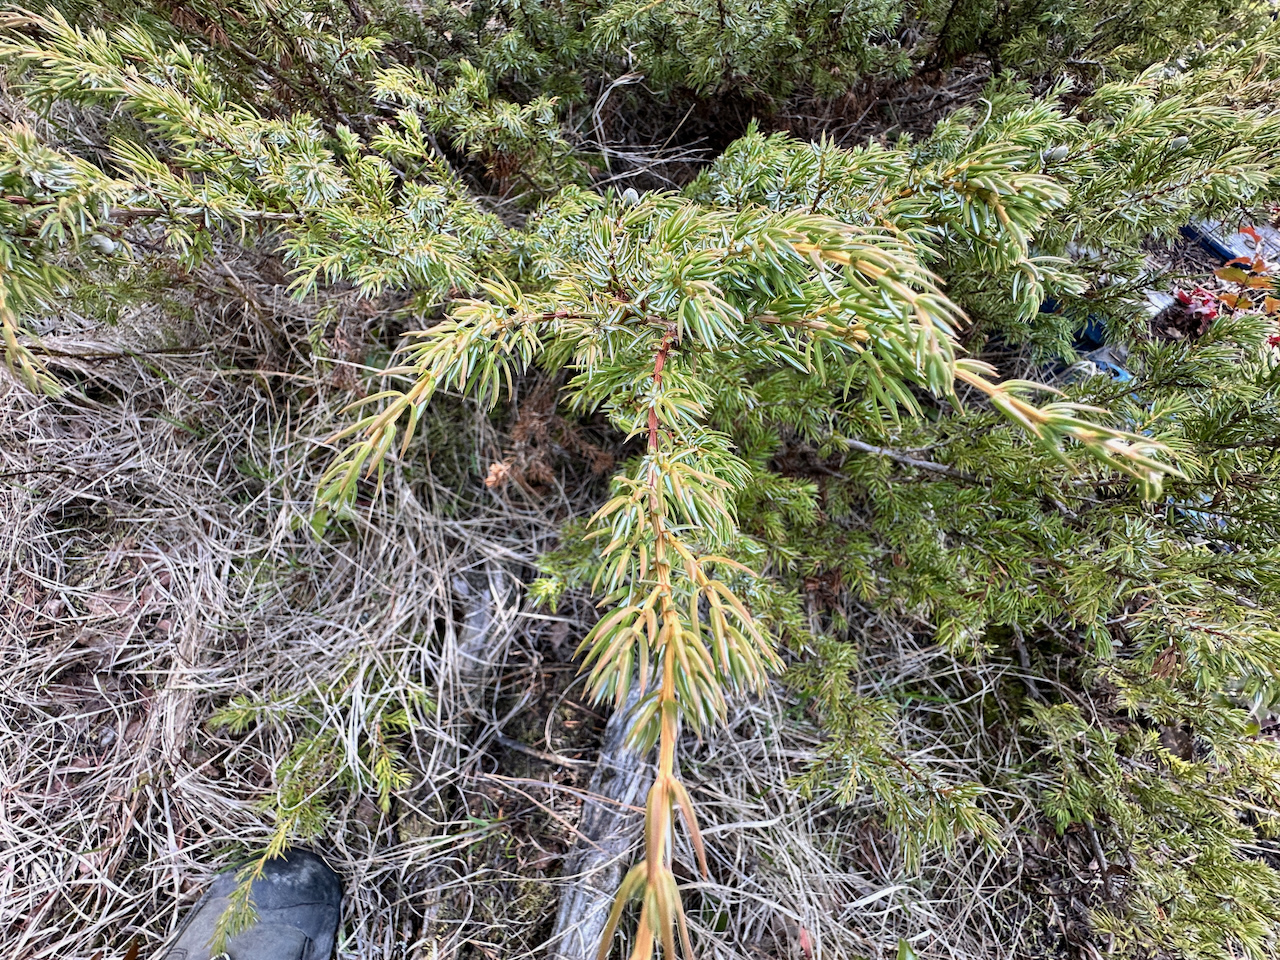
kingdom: Plantae
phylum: Tracheophyta
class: Pinopsida
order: Pinales
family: Cupressaceae
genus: Juniperus
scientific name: Juniperus communis
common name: Common juniper
